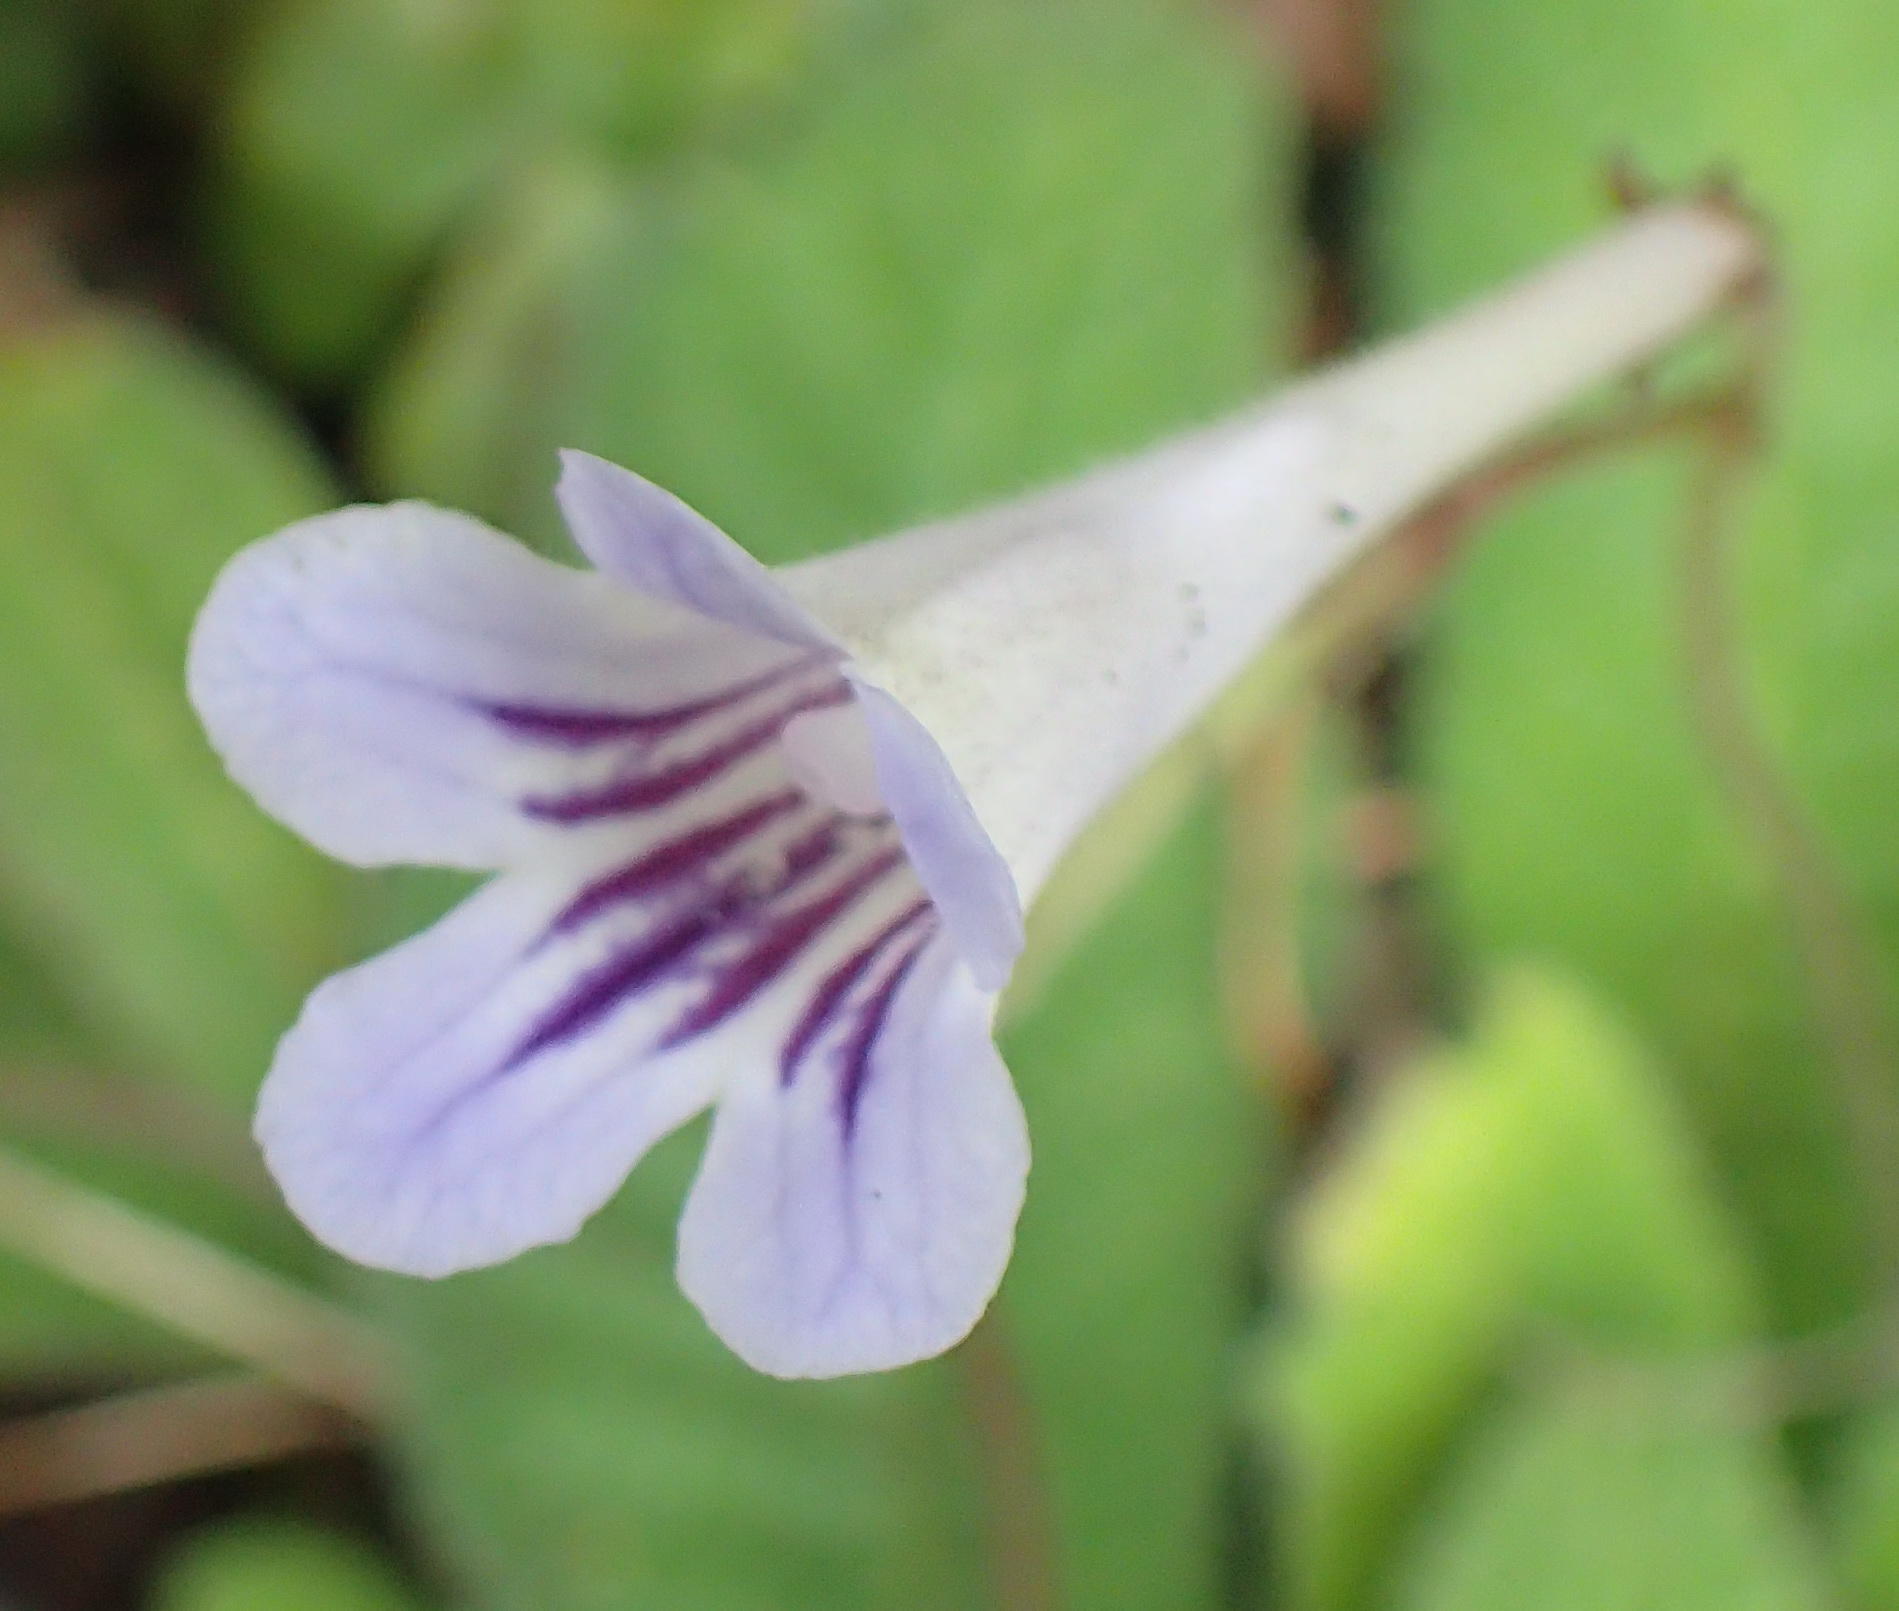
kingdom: Plantae
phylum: Tracheophyta
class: Magnoliopsida
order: Lamiales
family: Gesneriaceae
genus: Streptocarpus
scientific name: Streptocarpus rexii
